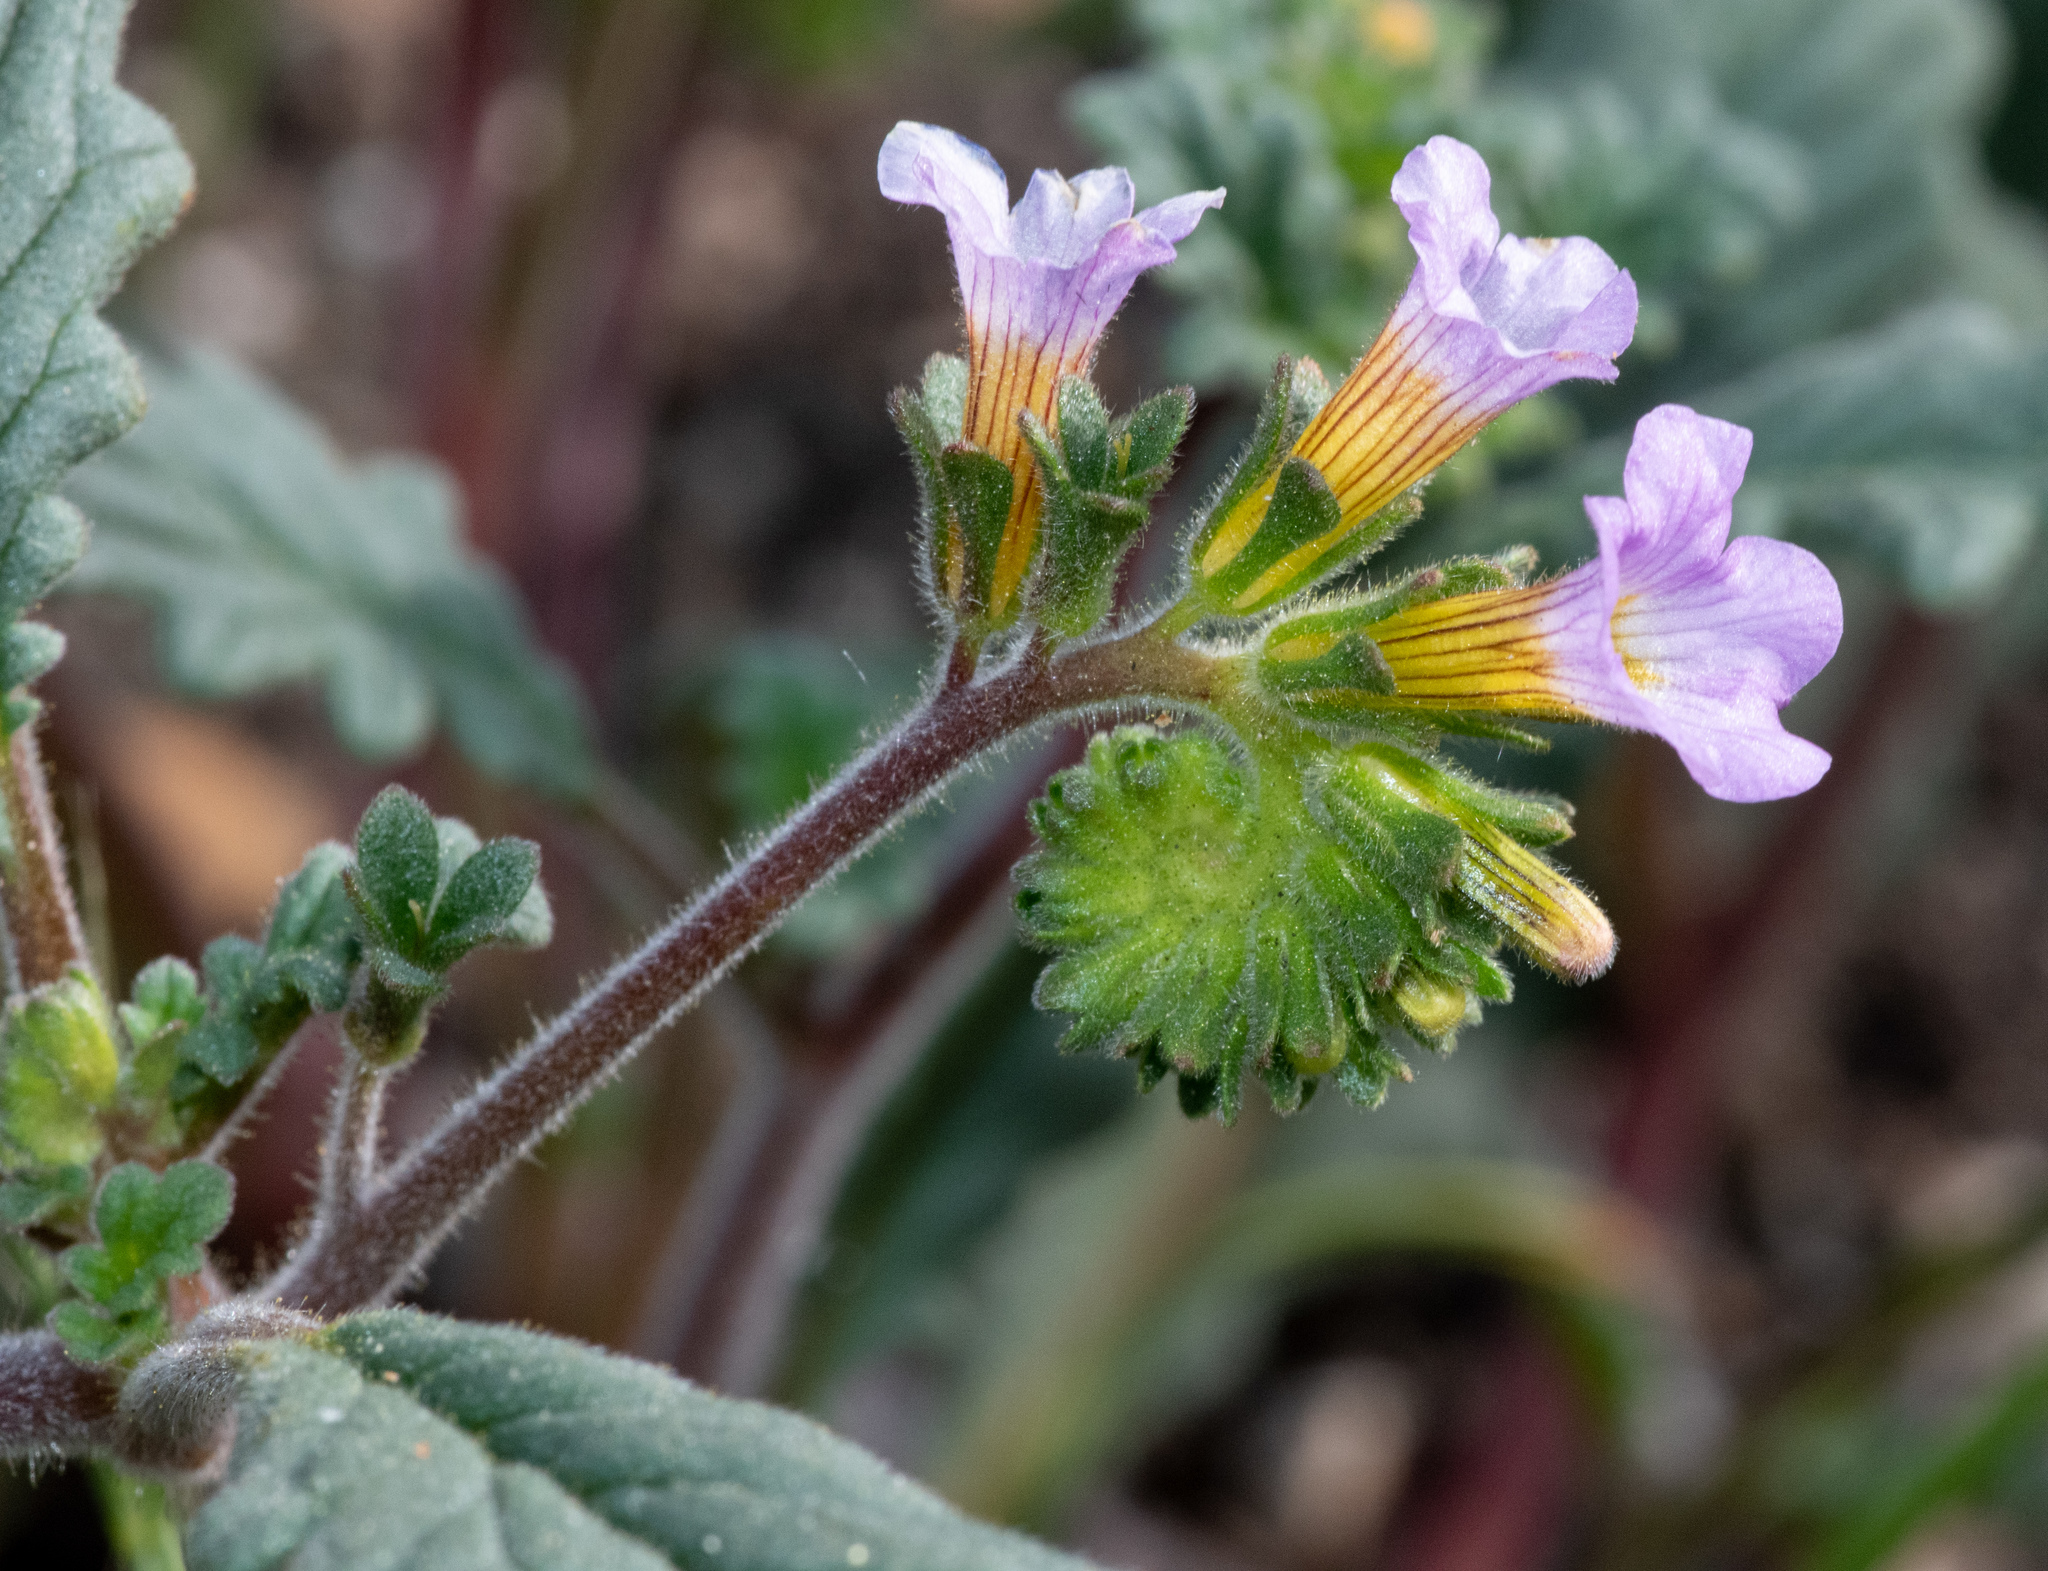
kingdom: Plantae
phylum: Tracheophyta
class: Magnoliopsida
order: Boraginales
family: Hydrophyllaceae
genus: Phacelia
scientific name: Phacelia suaveolens
